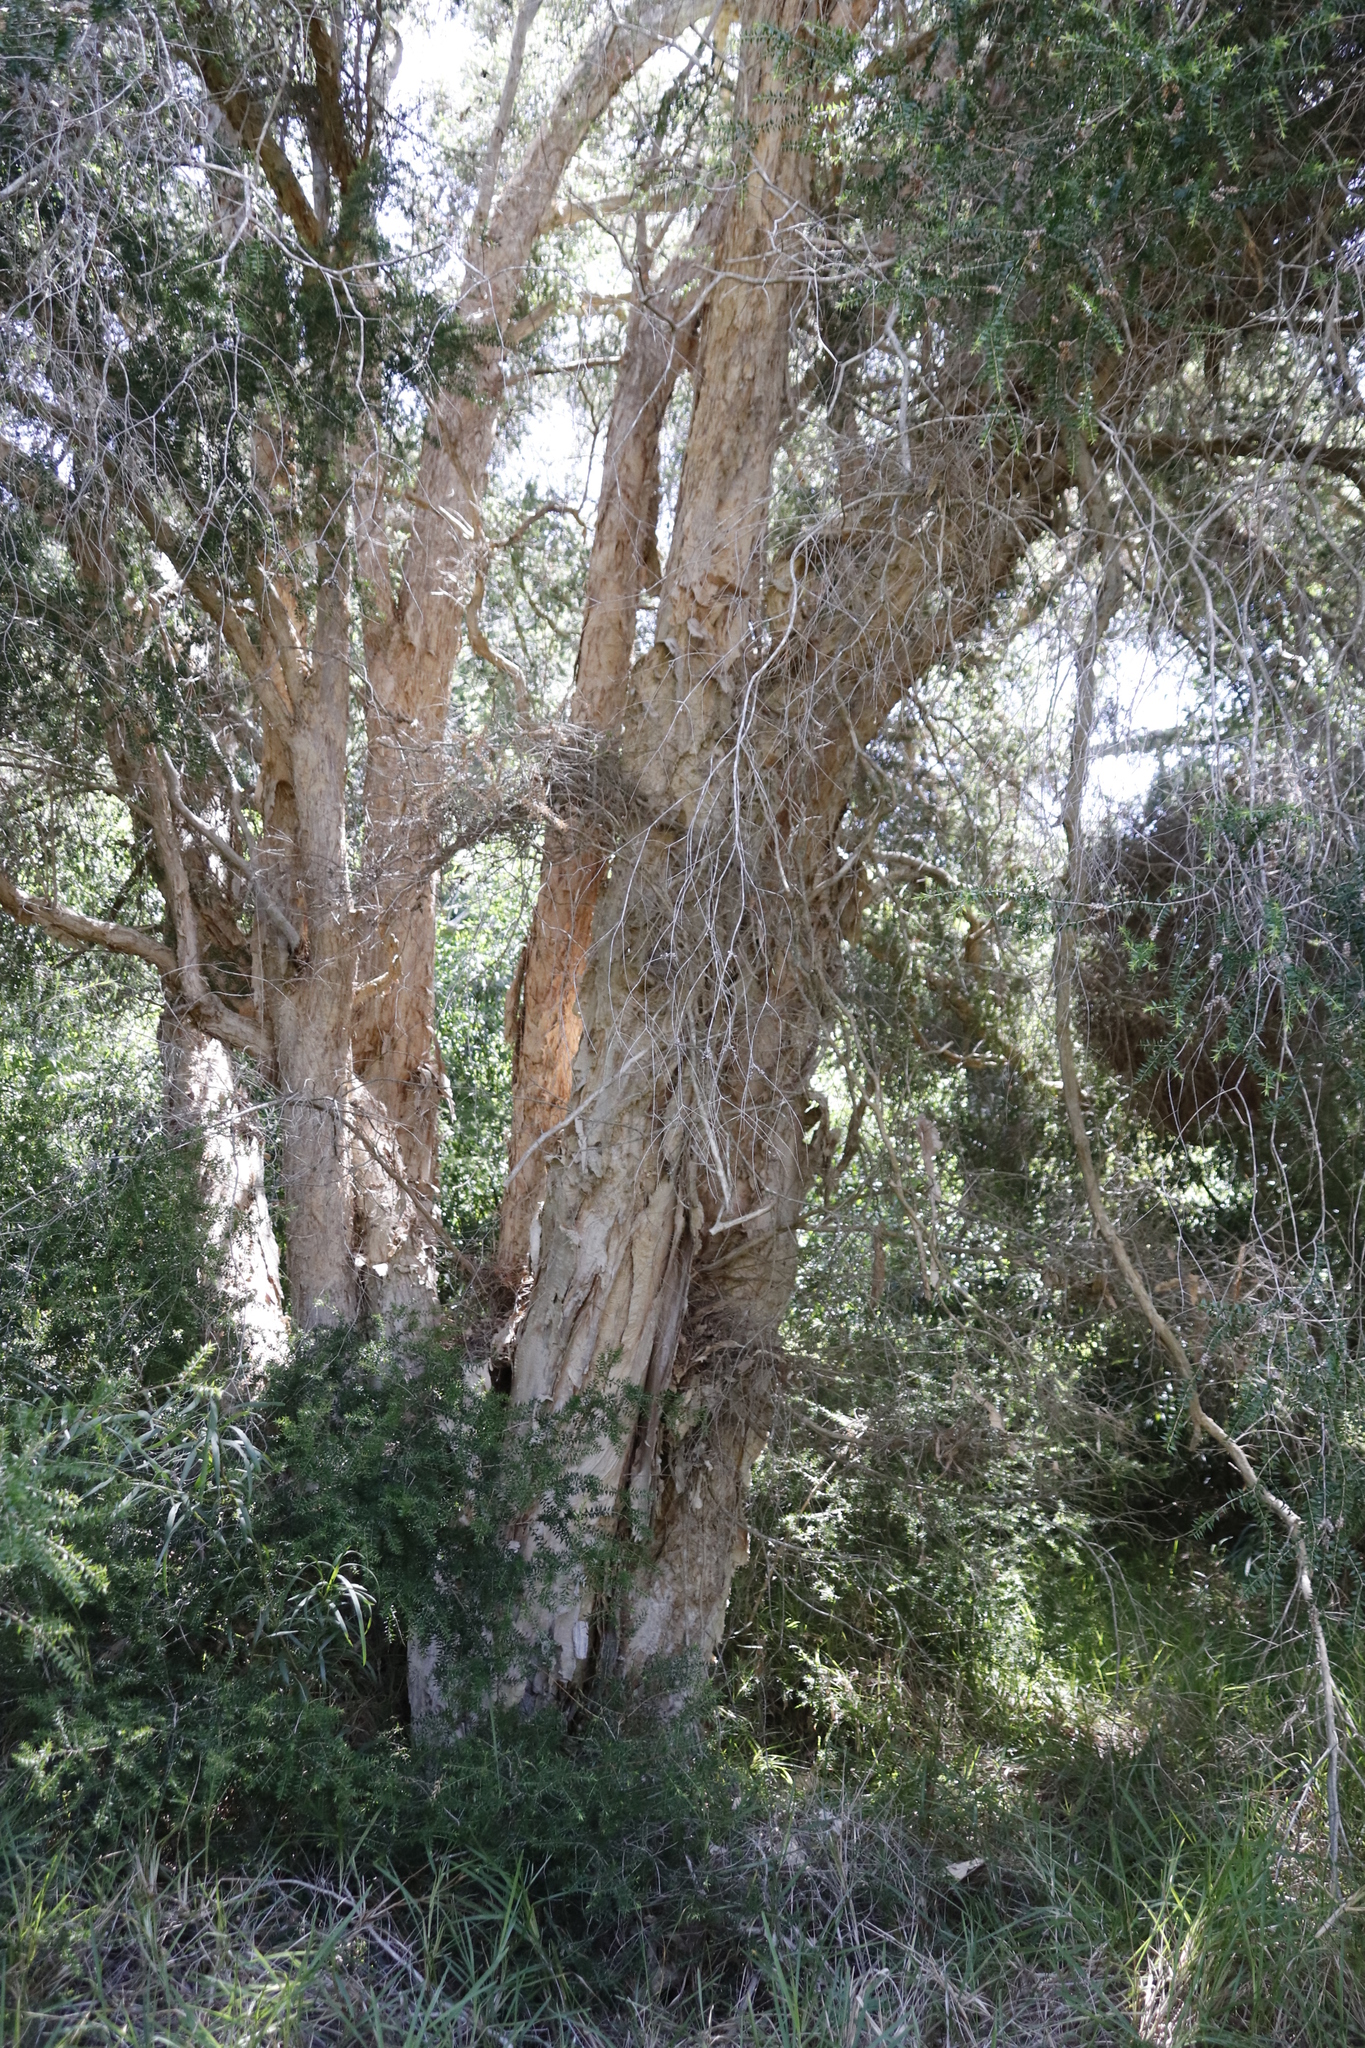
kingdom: Plantae
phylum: Tracheophyta
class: Magnoliopsida
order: Myrtales
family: Myrtaceae
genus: Melaleuca
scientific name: Melaleuca styphelioides
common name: Prickly paperbark
